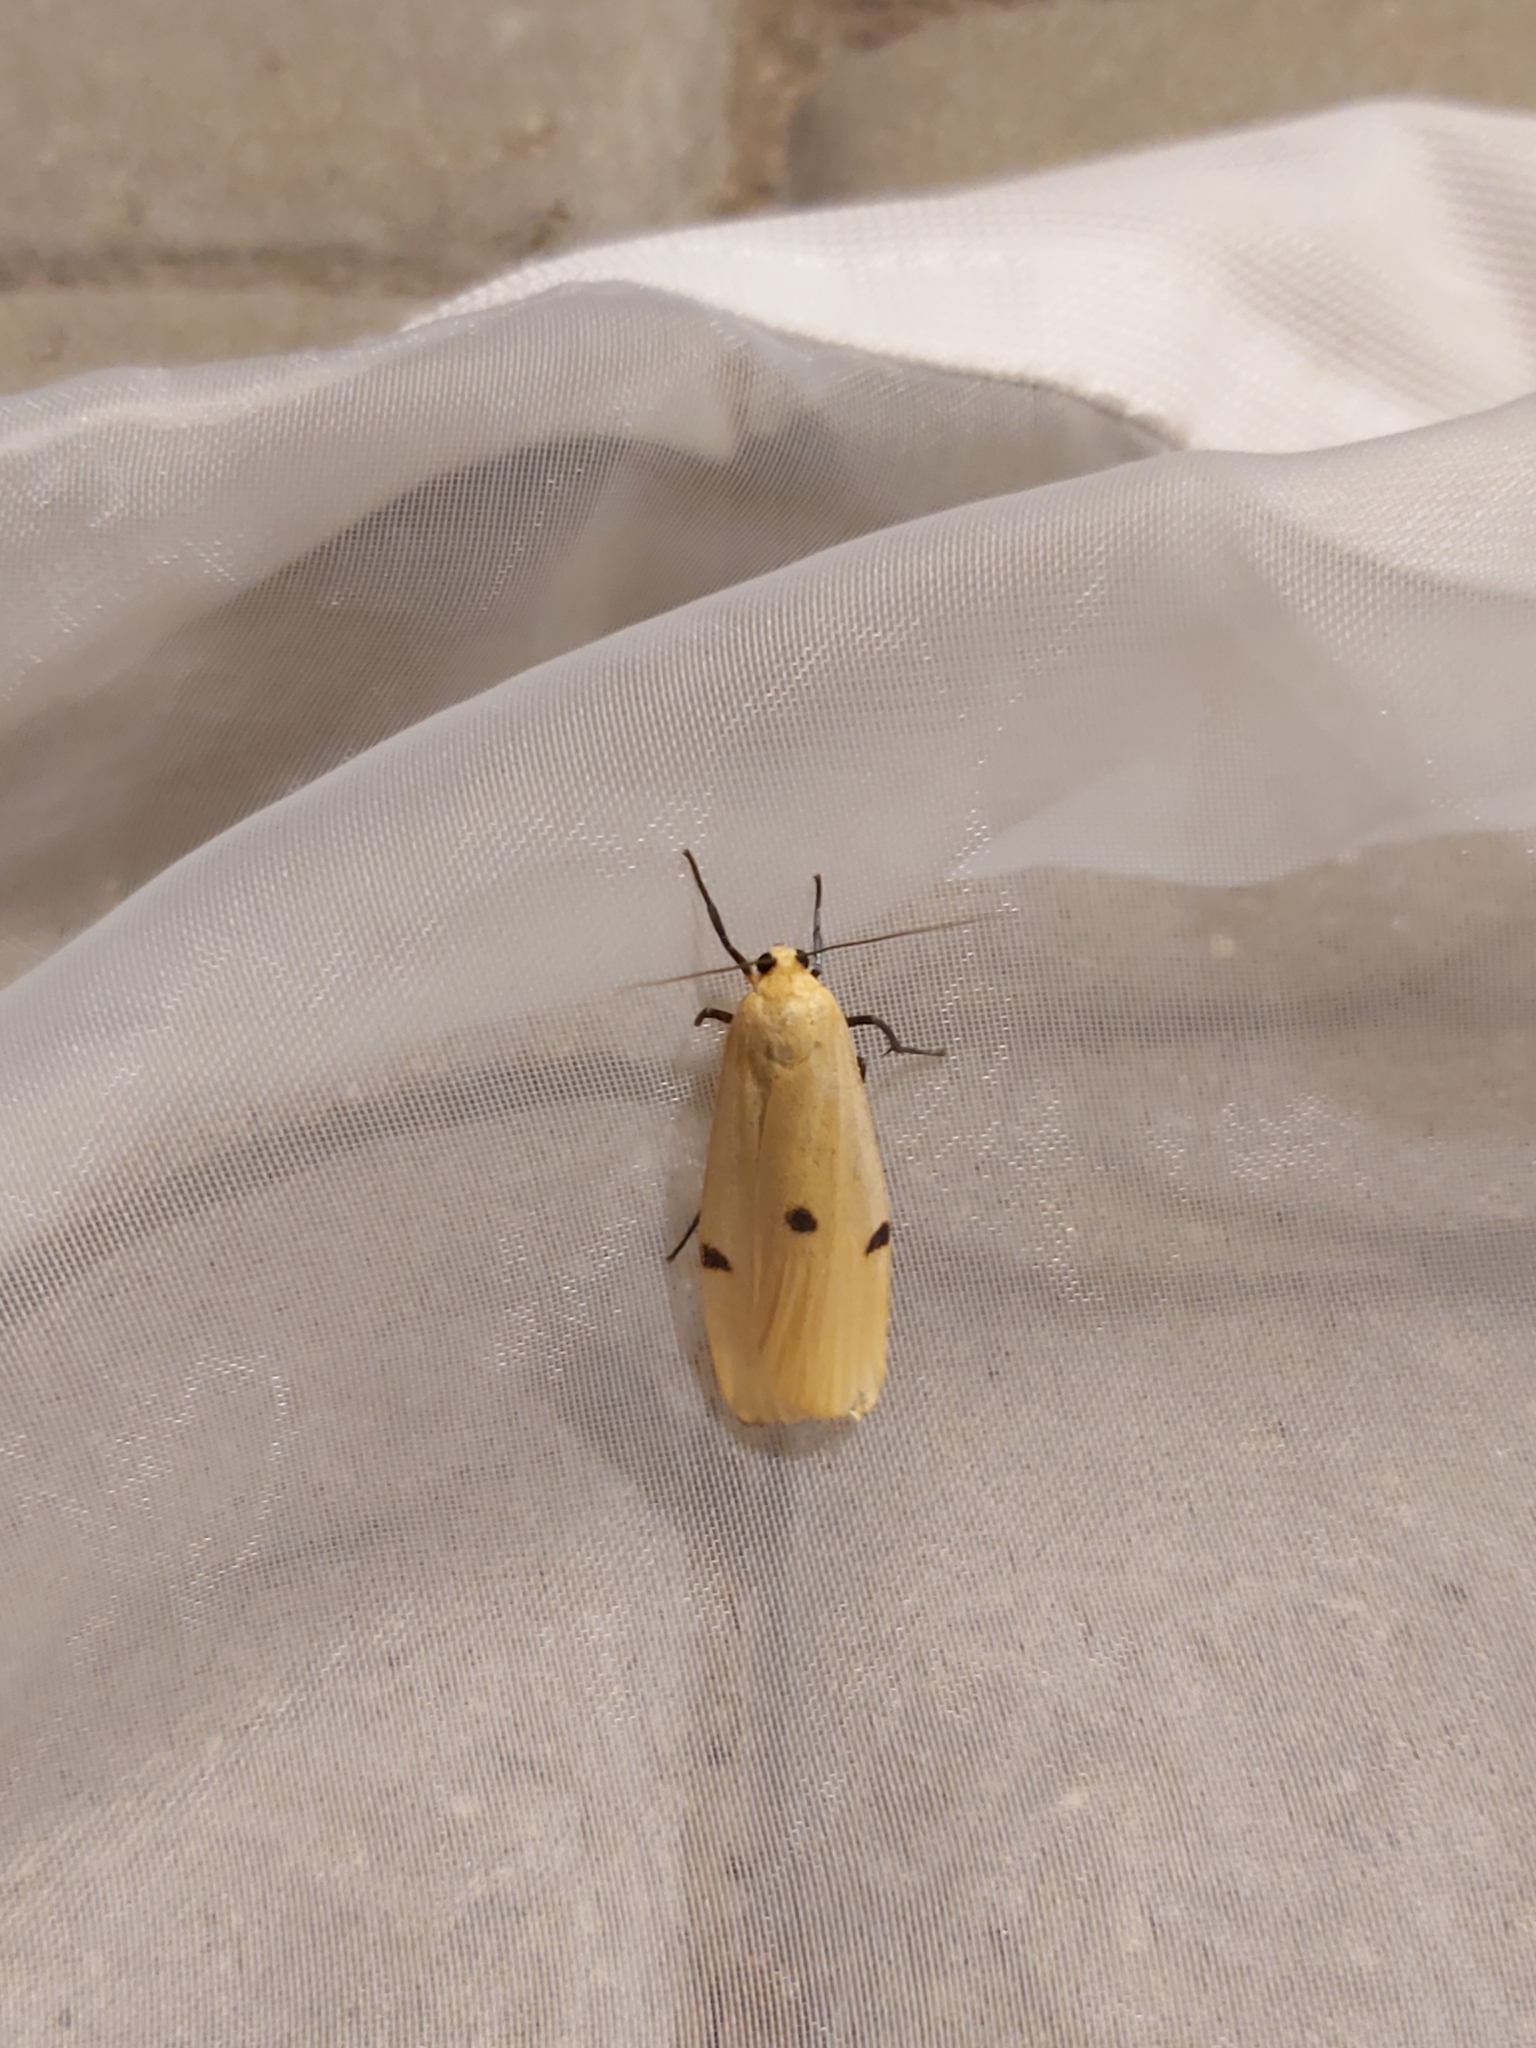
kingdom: Animalia
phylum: Arthropoda
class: Insecta
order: Lepidoptera
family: Erebidae
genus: Lithosia
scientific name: Lithosia quadra
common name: Four-spotted footman
